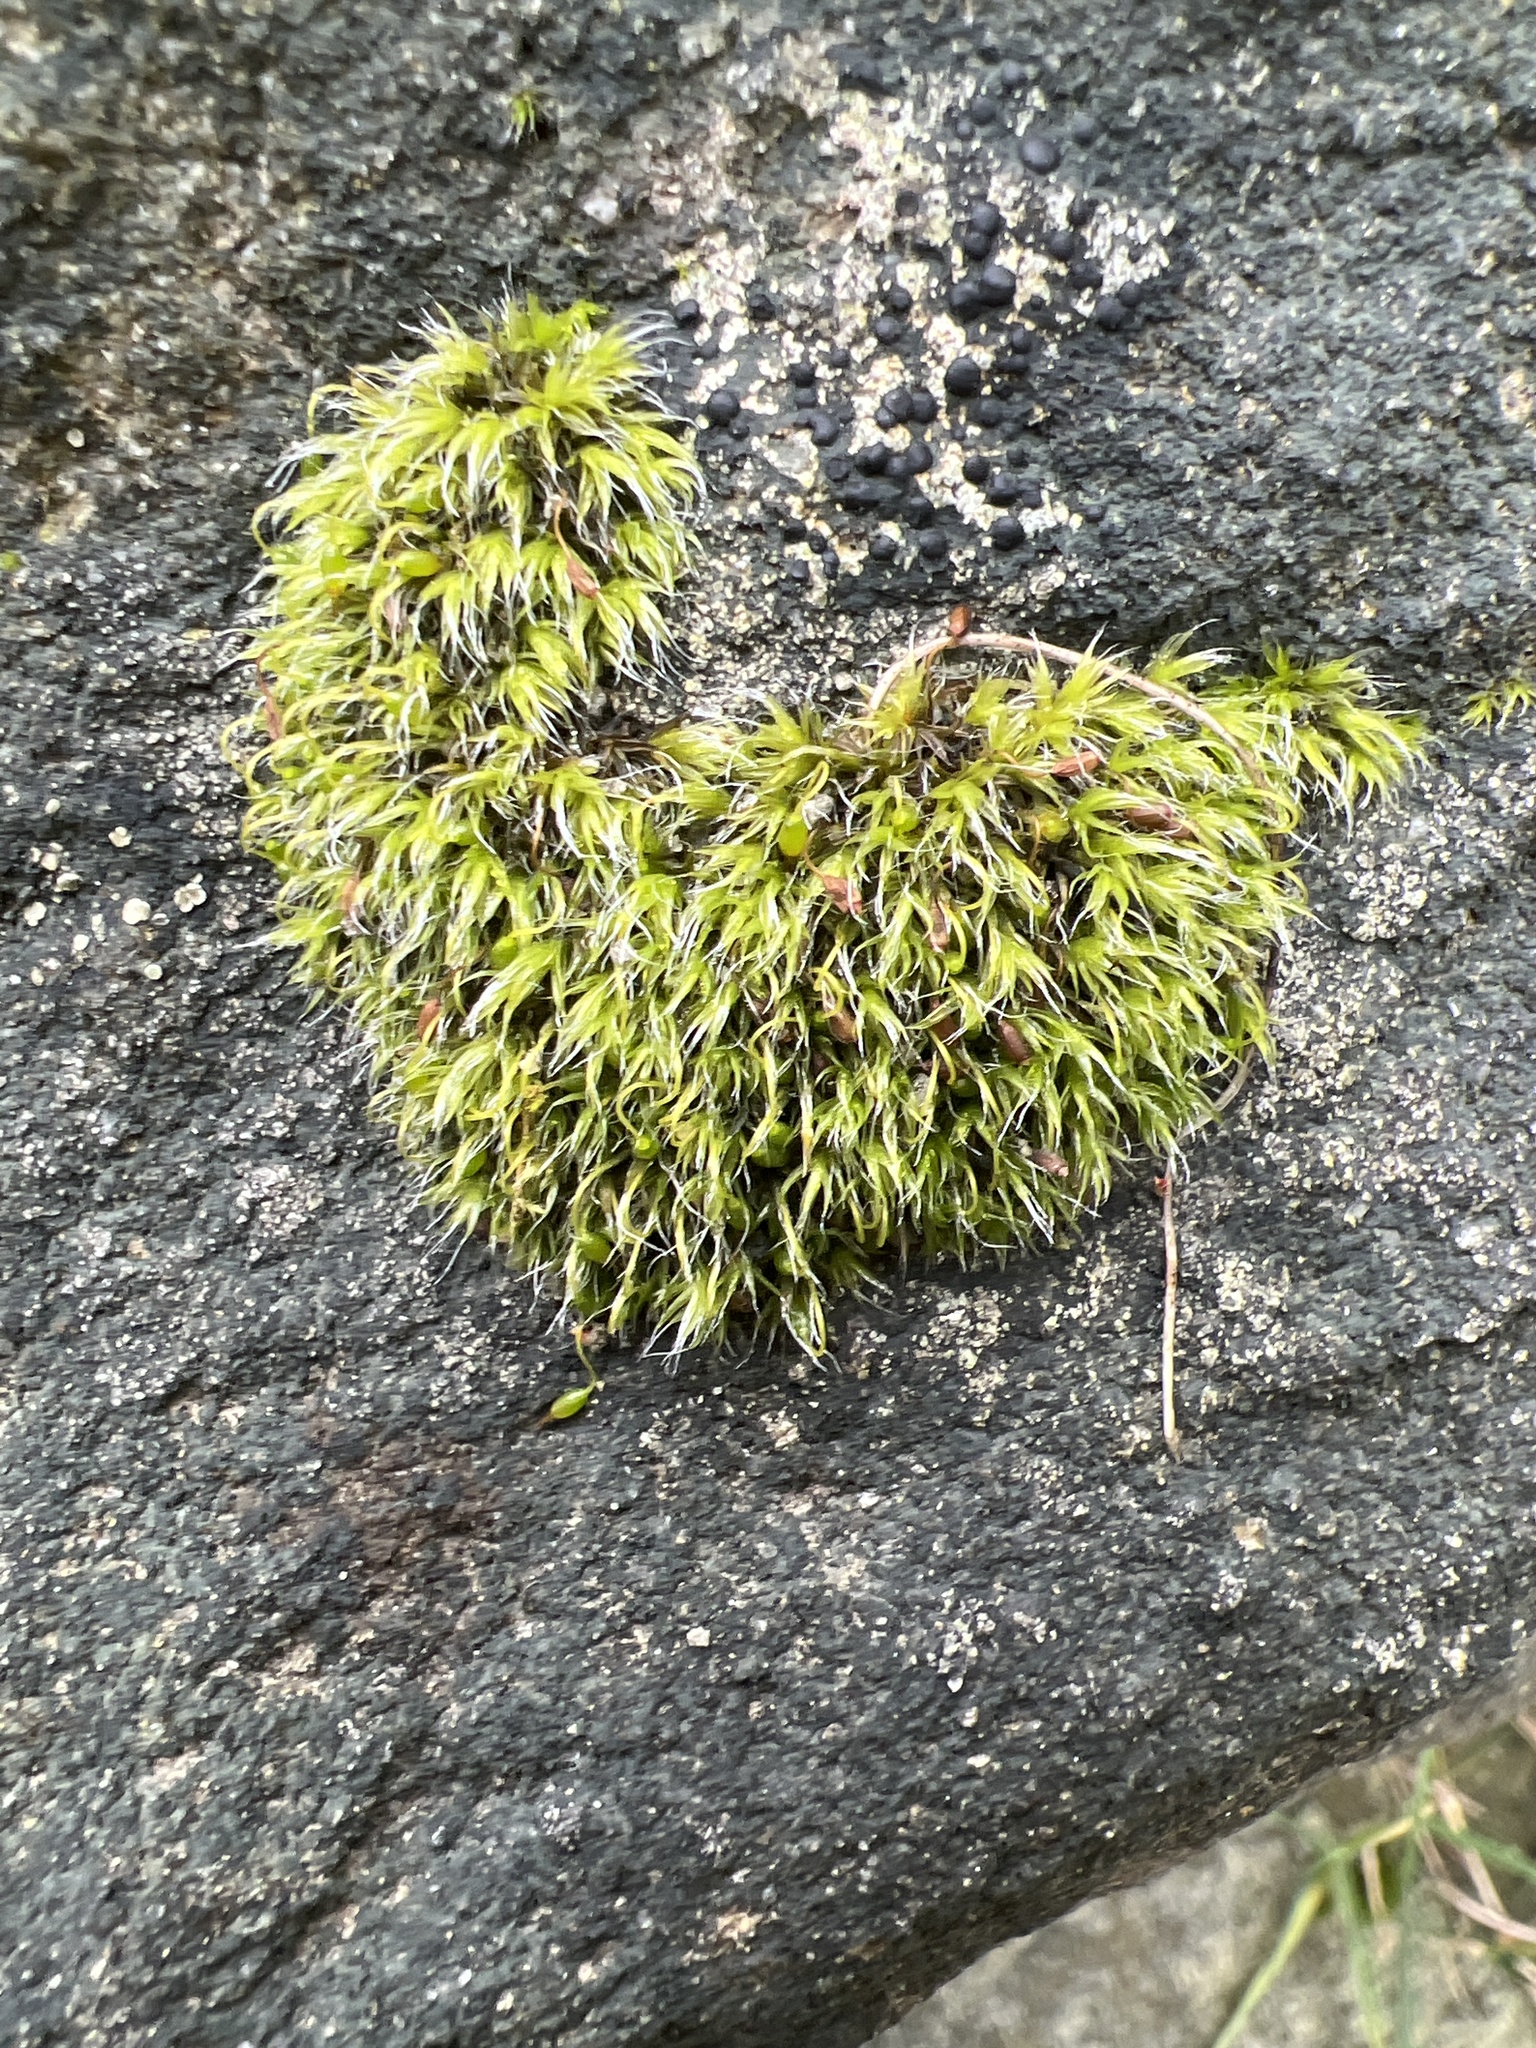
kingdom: Plantae
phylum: Bryophyta
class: Bryopsida
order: Grimmiales
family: Grimmiaceae
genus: Grimmia
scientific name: Grimmia pulvinata
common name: Grey-cushioned grimmia
